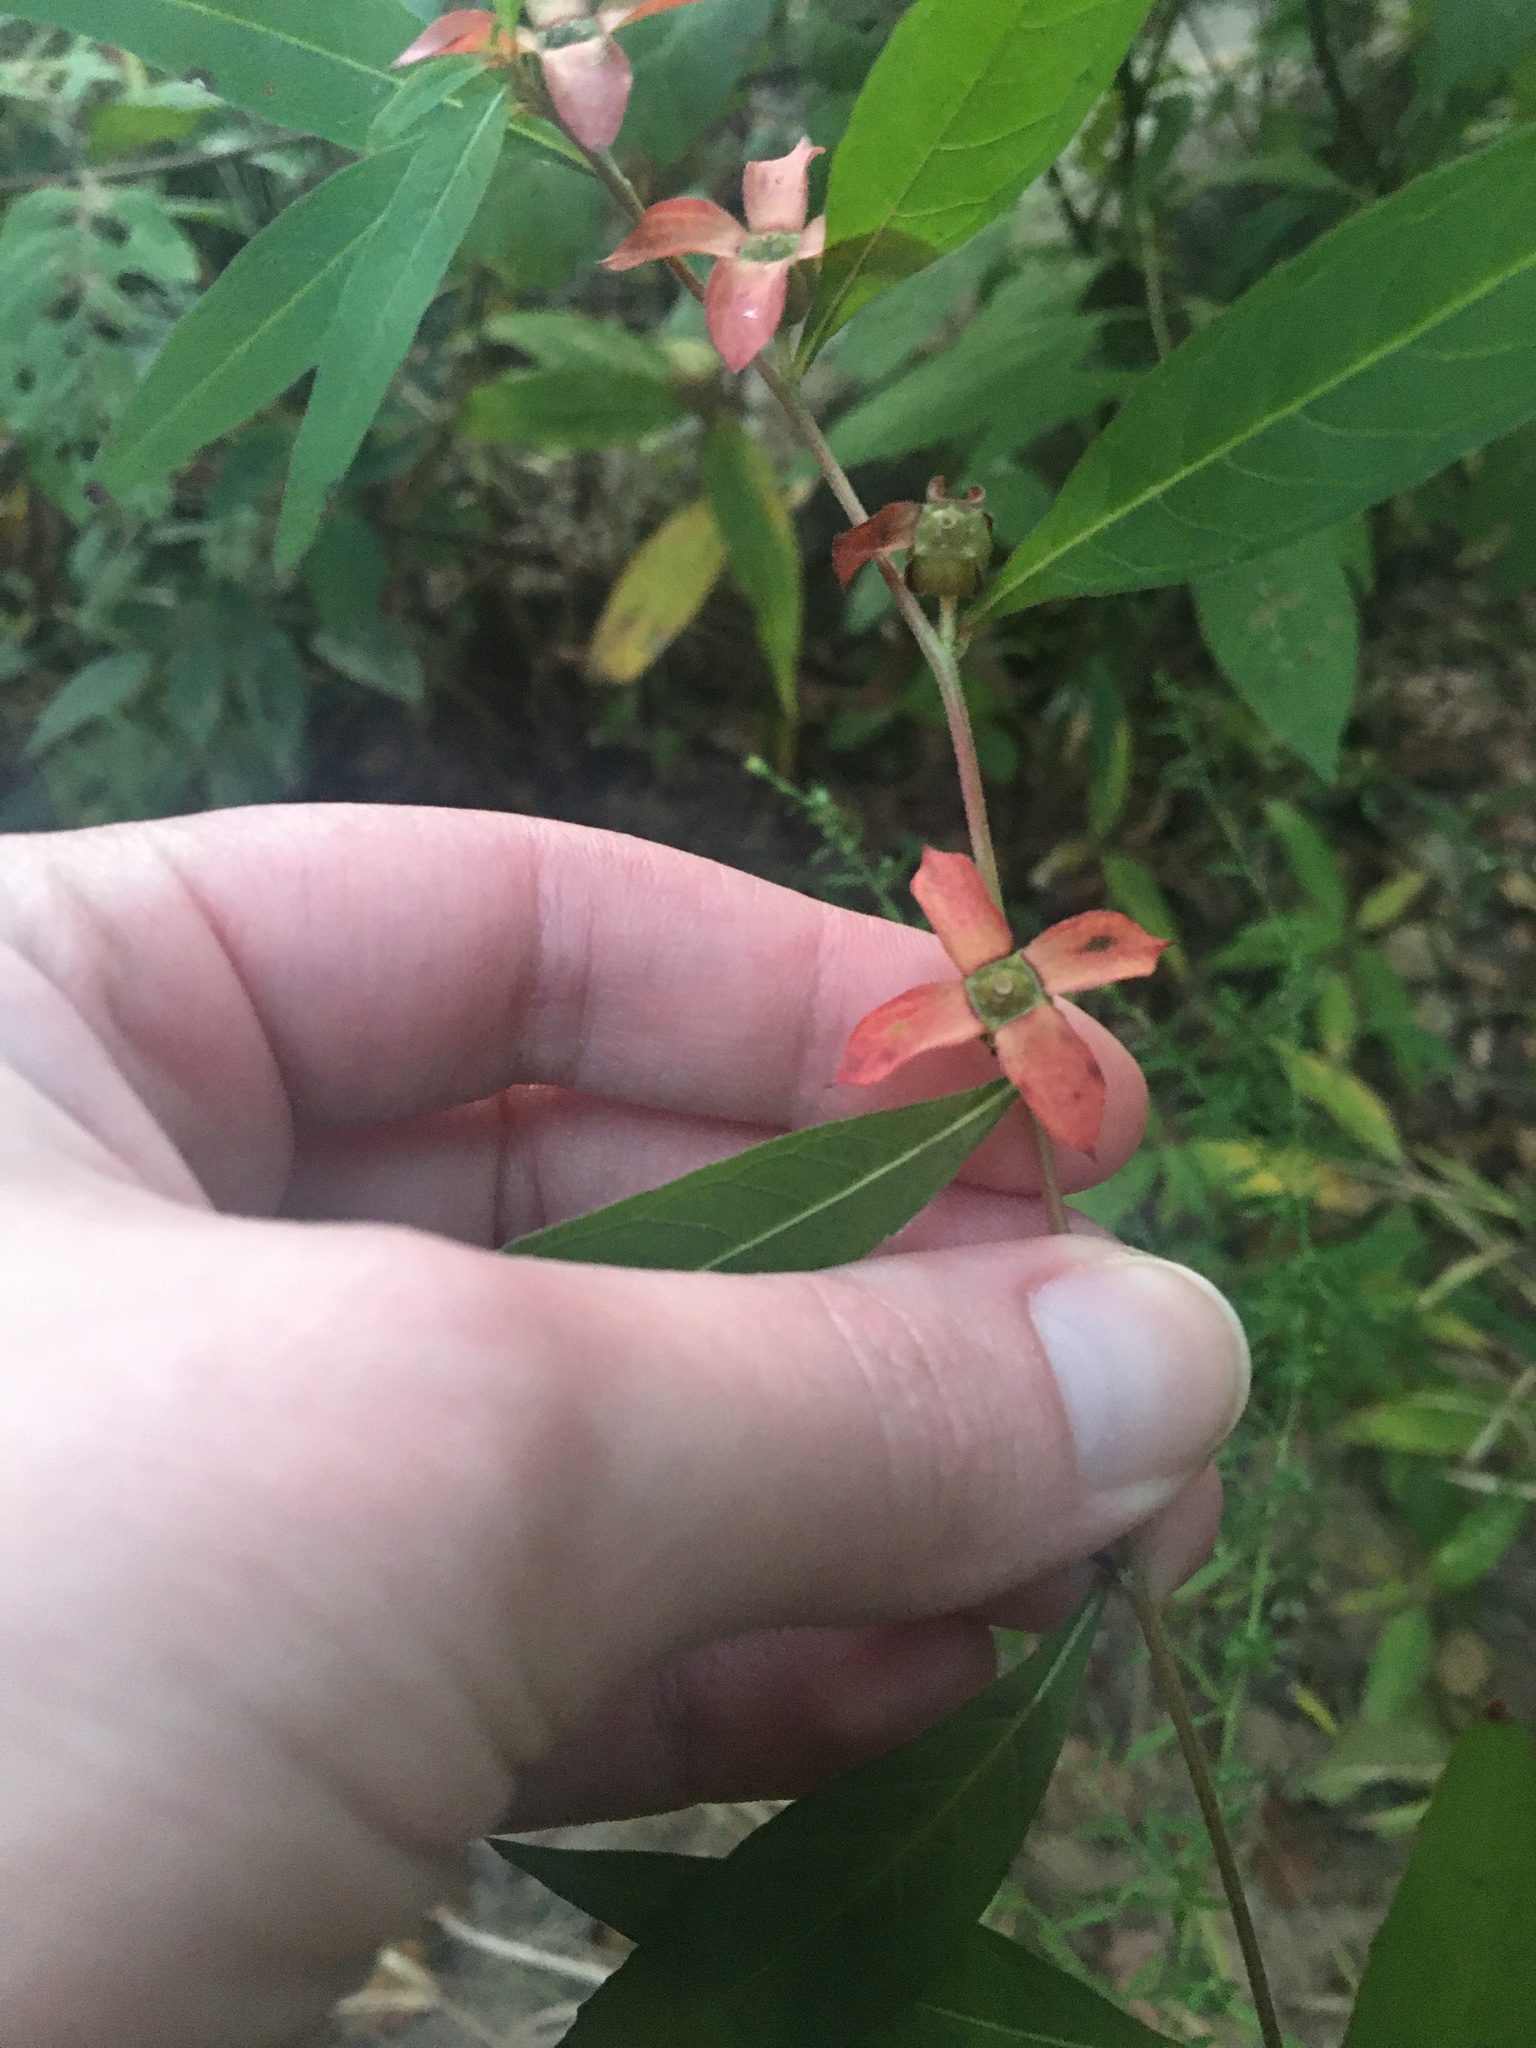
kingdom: Plantae
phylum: Tracheophyta
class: Magnoliopsida
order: Myrtales
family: Onagraceae
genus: Ludwigia
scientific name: Ludwigia alternifolia
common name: Rattlebox
